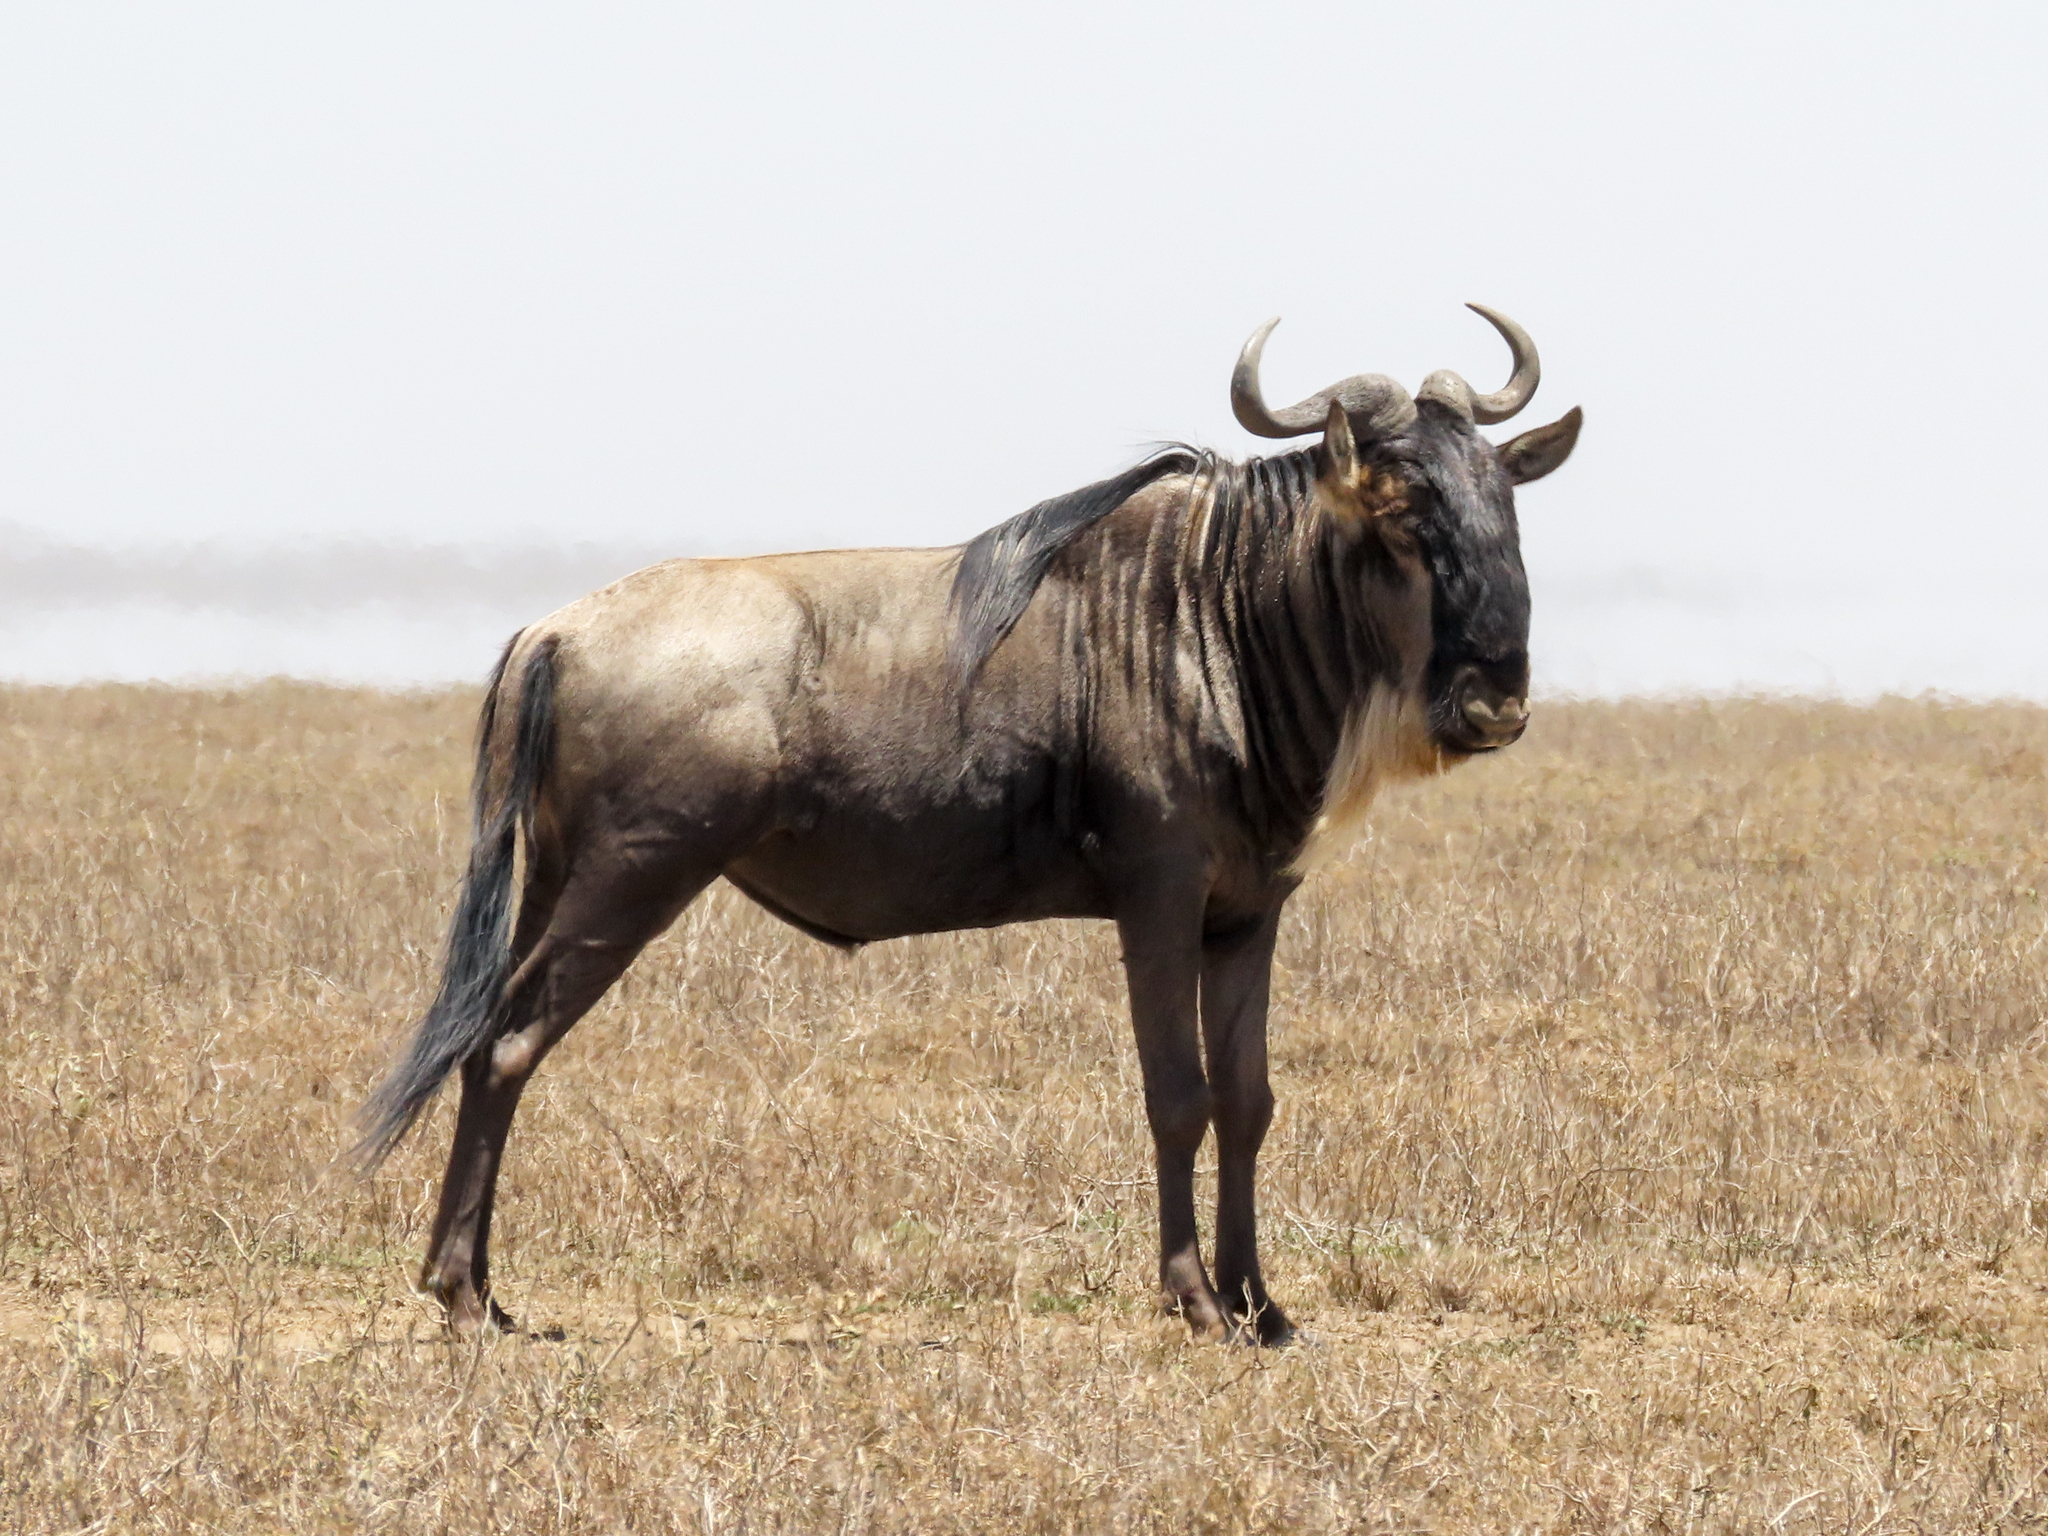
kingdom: Animalia
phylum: Chordata
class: Mammalia
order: Artiodactyla
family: Bovidae
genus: Connochaetes
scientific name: Connochaetes taurinus
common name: Blue wildebeest
